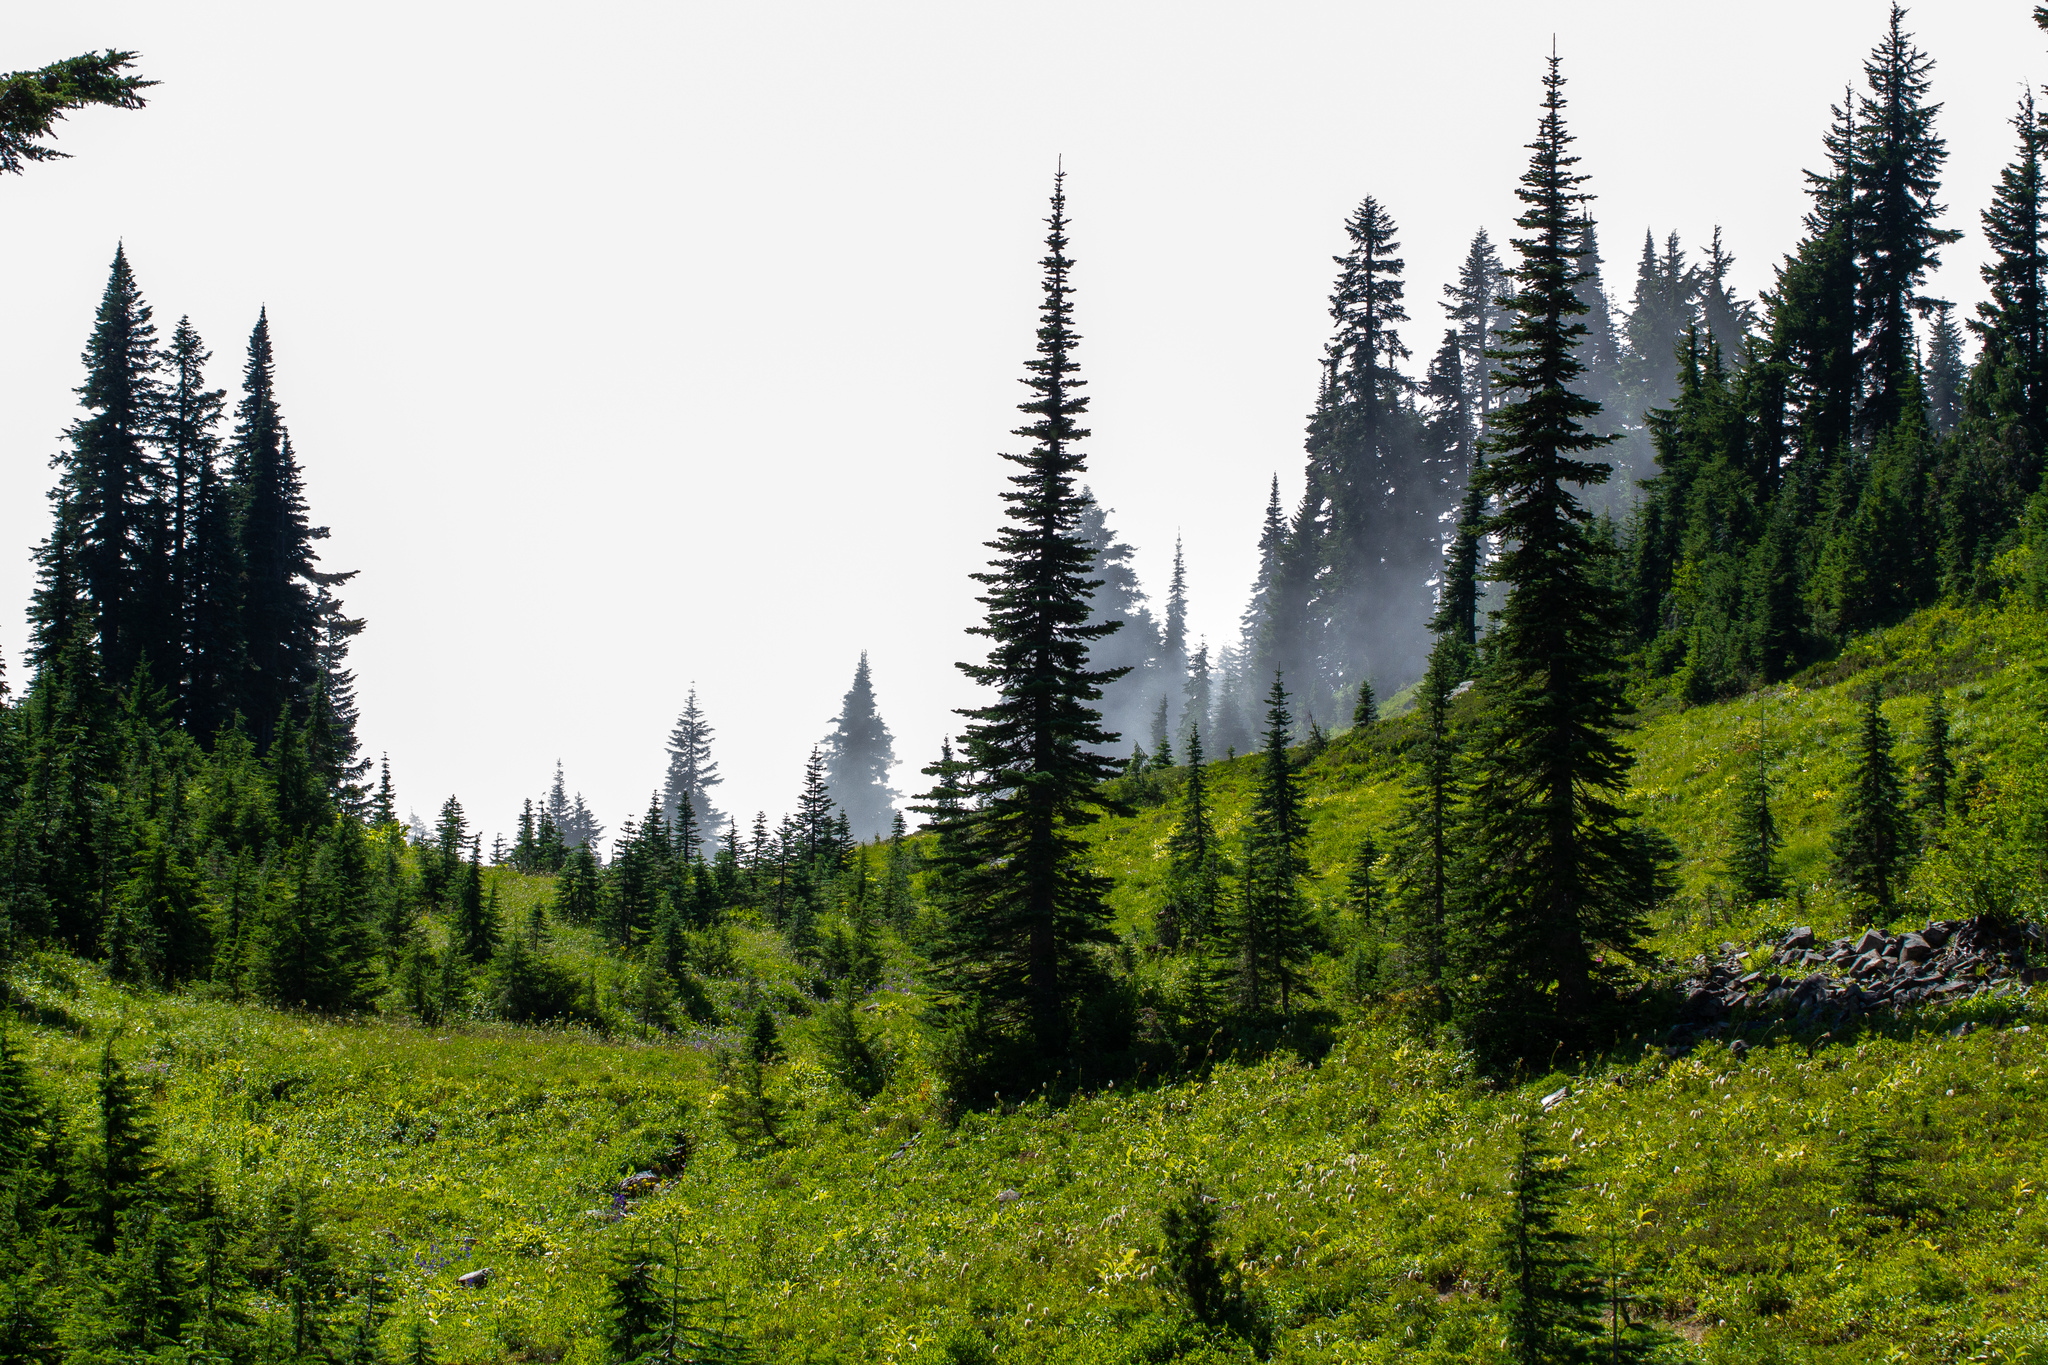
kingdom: Plantae
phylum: Tracheophyta
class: Pinopsida
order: Pinales
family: Pinaceae
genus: Abies
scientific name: Abies lasiocarpa
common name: Subalpine fir
